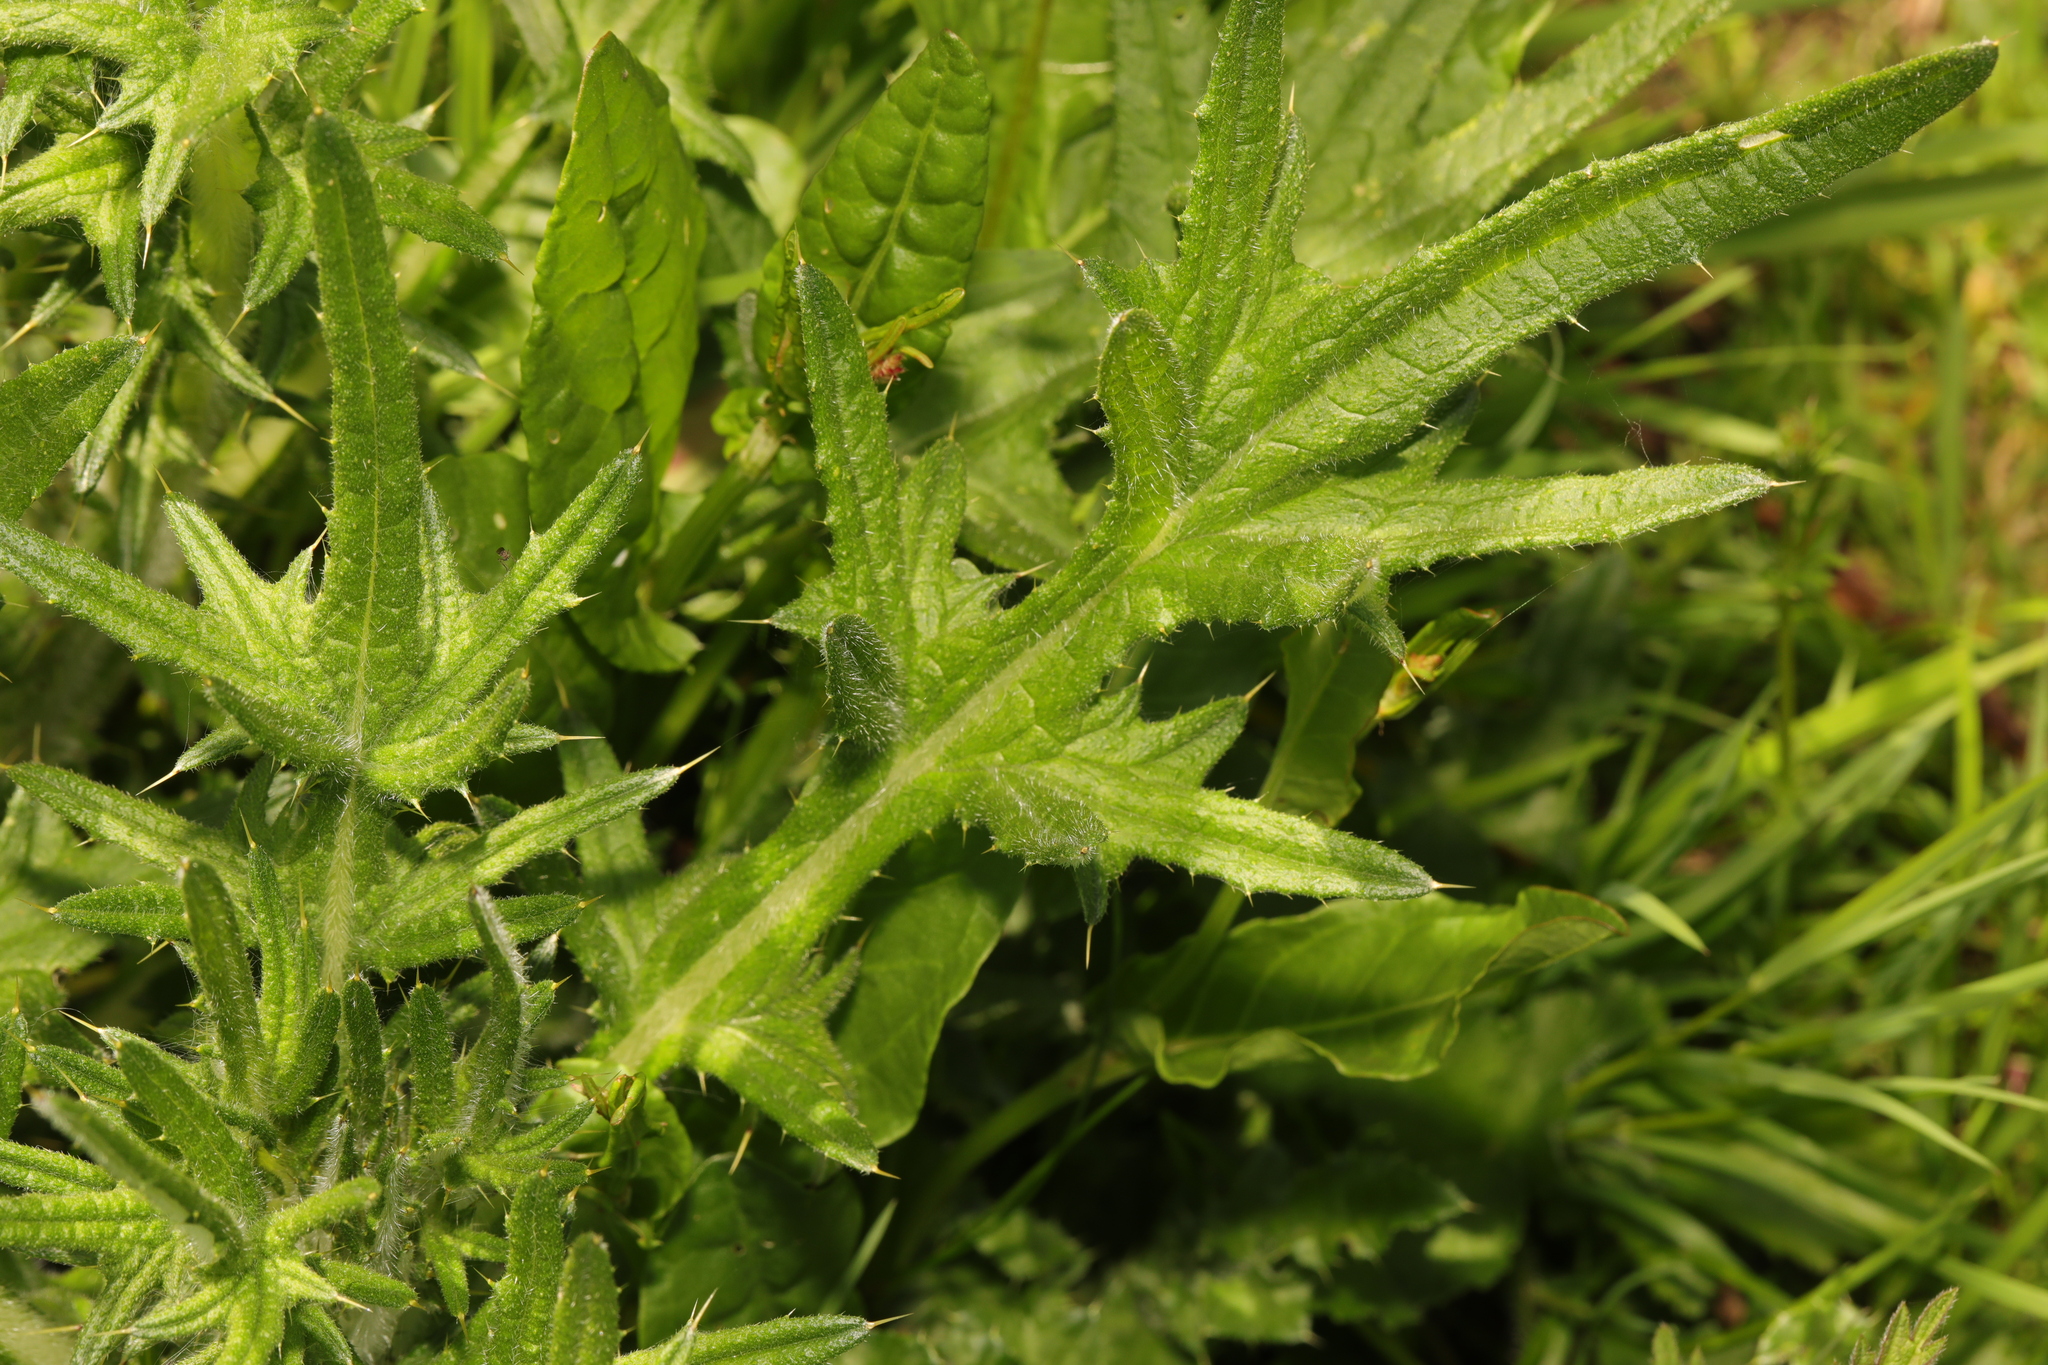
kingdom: Plantae
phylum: Tracheophyta
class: Magnoliopsida
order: Asterales
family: Asteraceae
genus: Cirsium
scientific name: Cirsium vulgare
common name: Bull thistle
